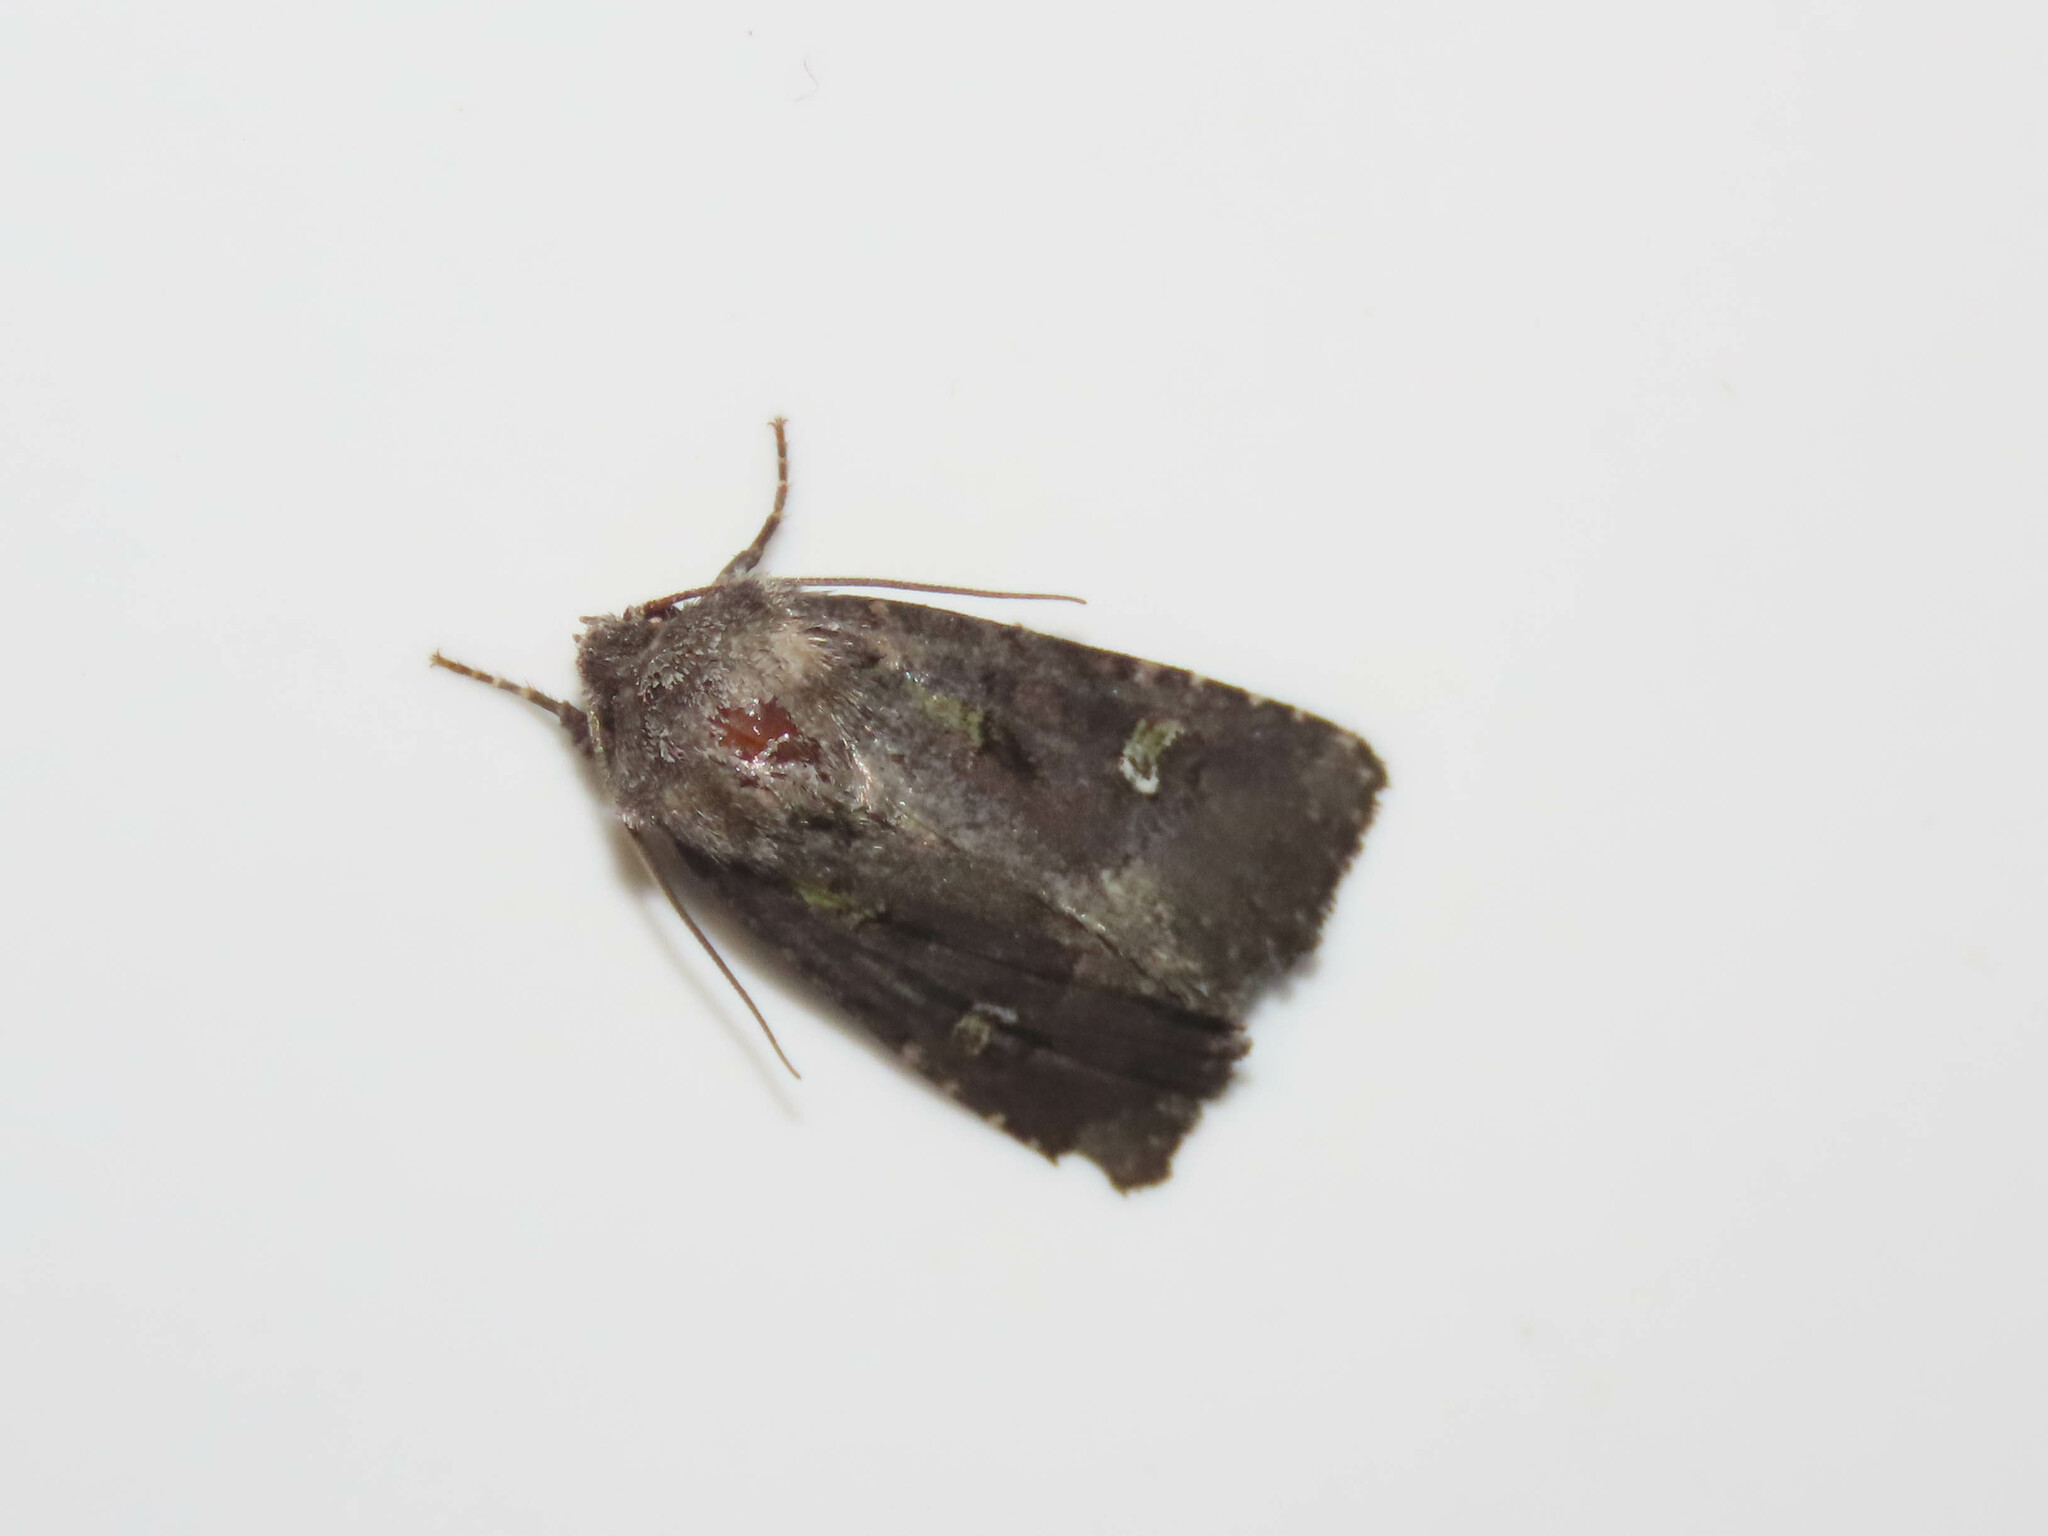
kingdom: Animalia
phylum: Arthropoda
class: Insecta
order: Lepidoptera
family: Noctuidae
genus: Lacinipolia
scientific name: Lacinipolia renigera
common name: Kidney-spotted minor
